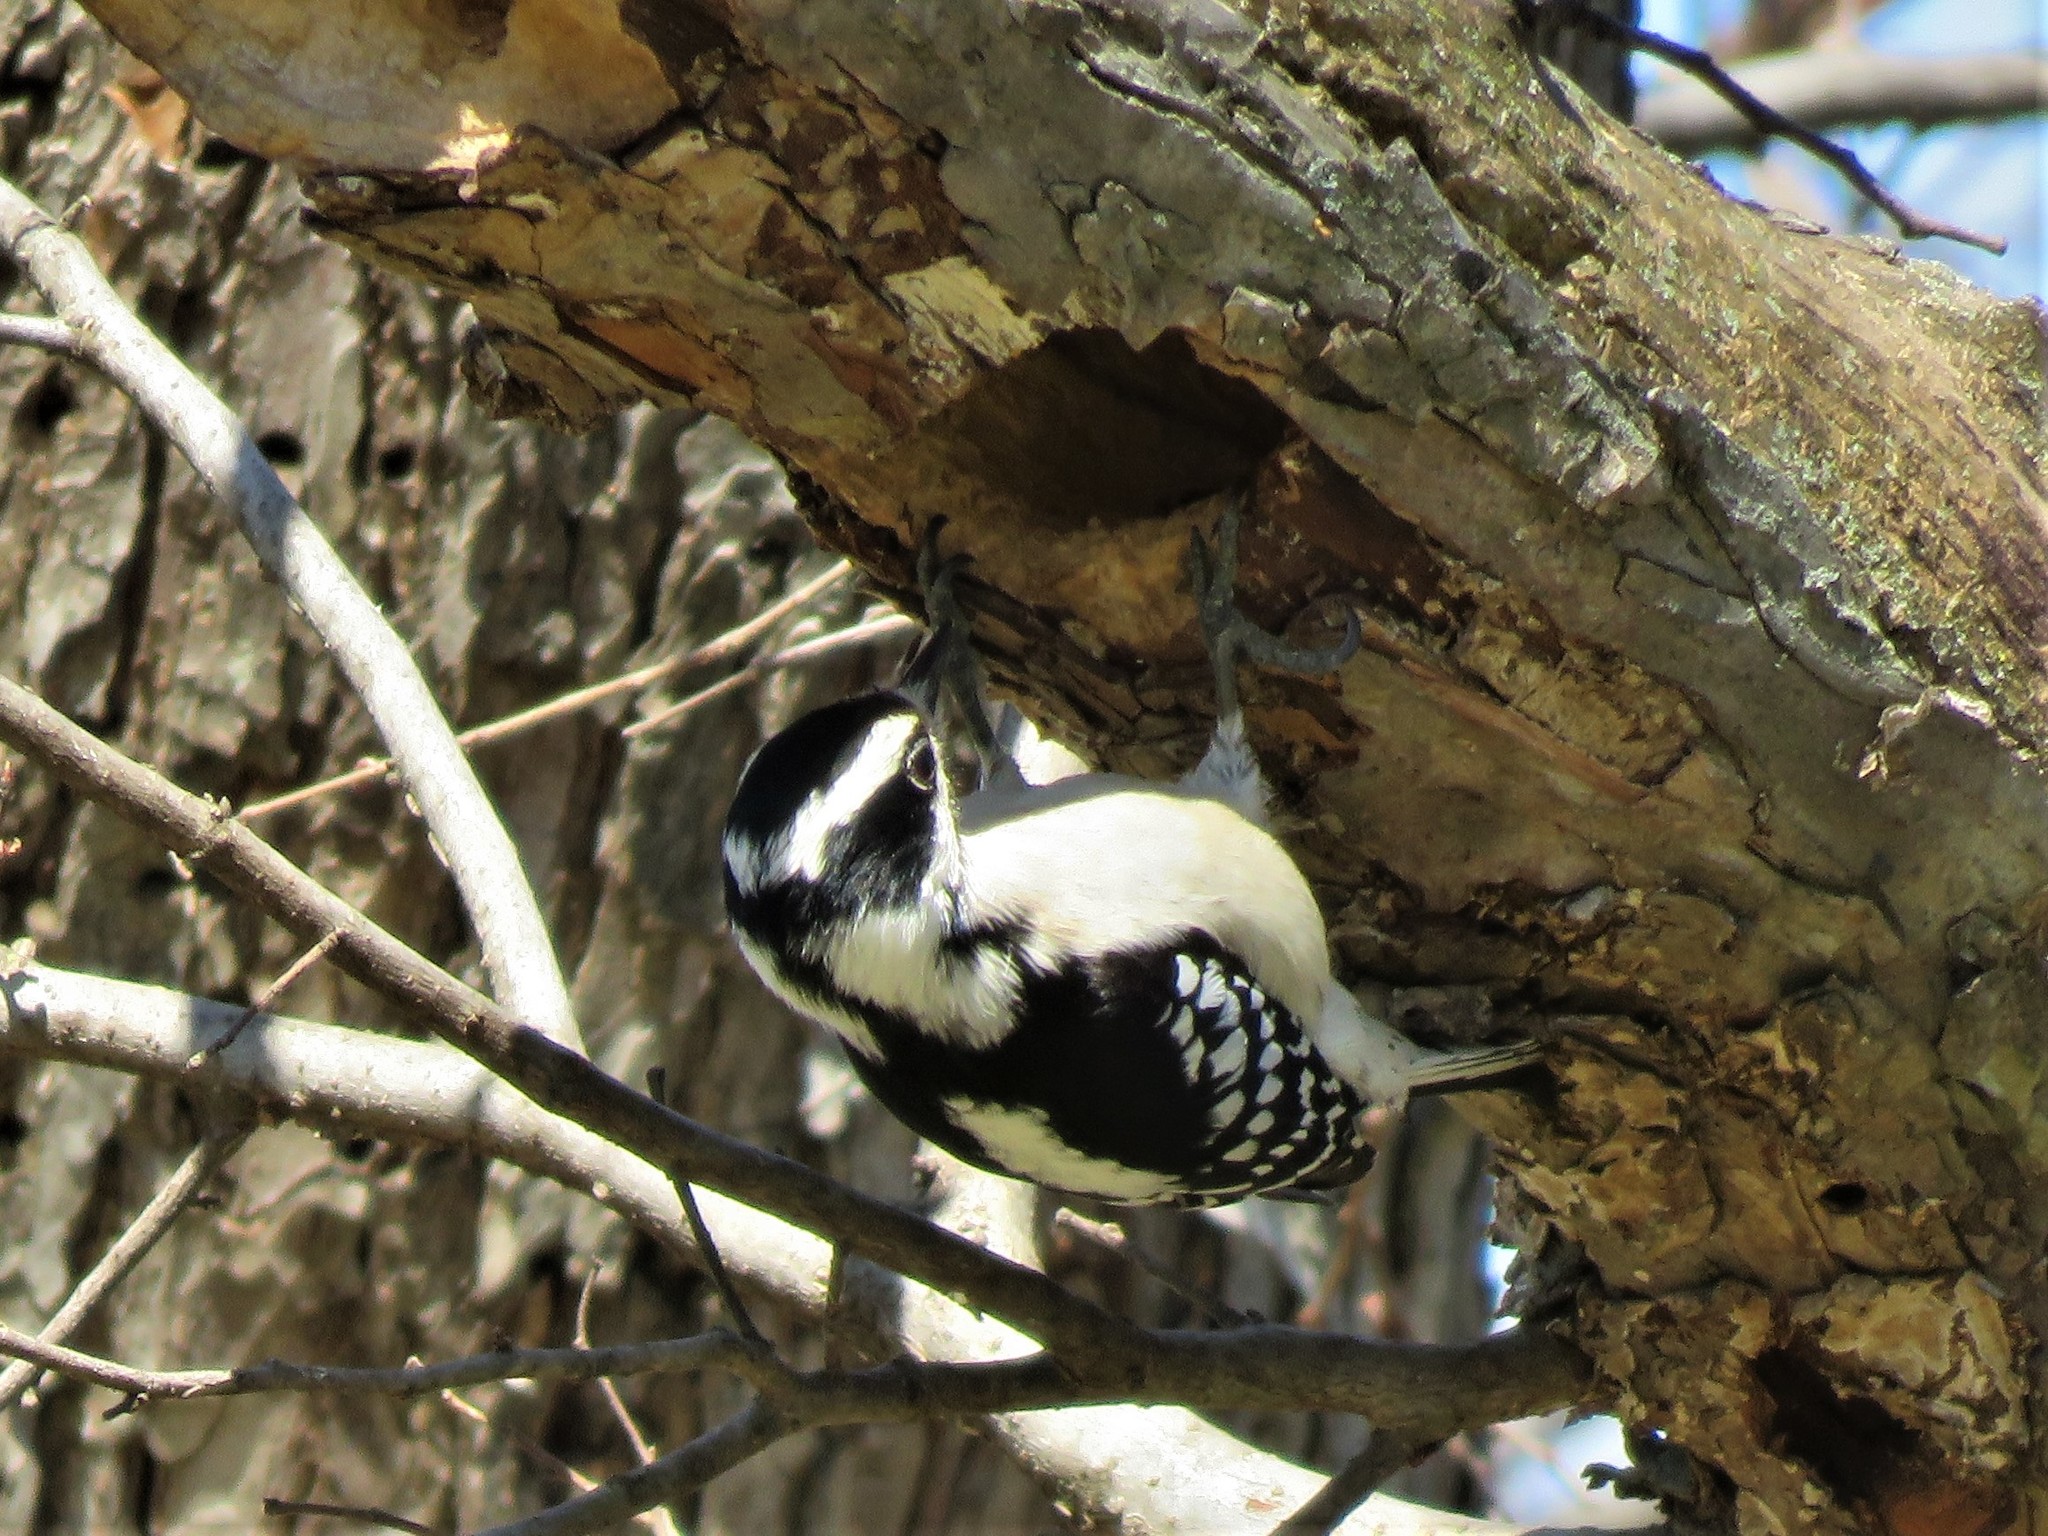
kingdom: Animalia
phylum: Chordata
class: Aves
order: Piciformes
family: Picidae
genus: Dryobates
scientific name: Dryobates pubescens
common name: Downy woodpecker
